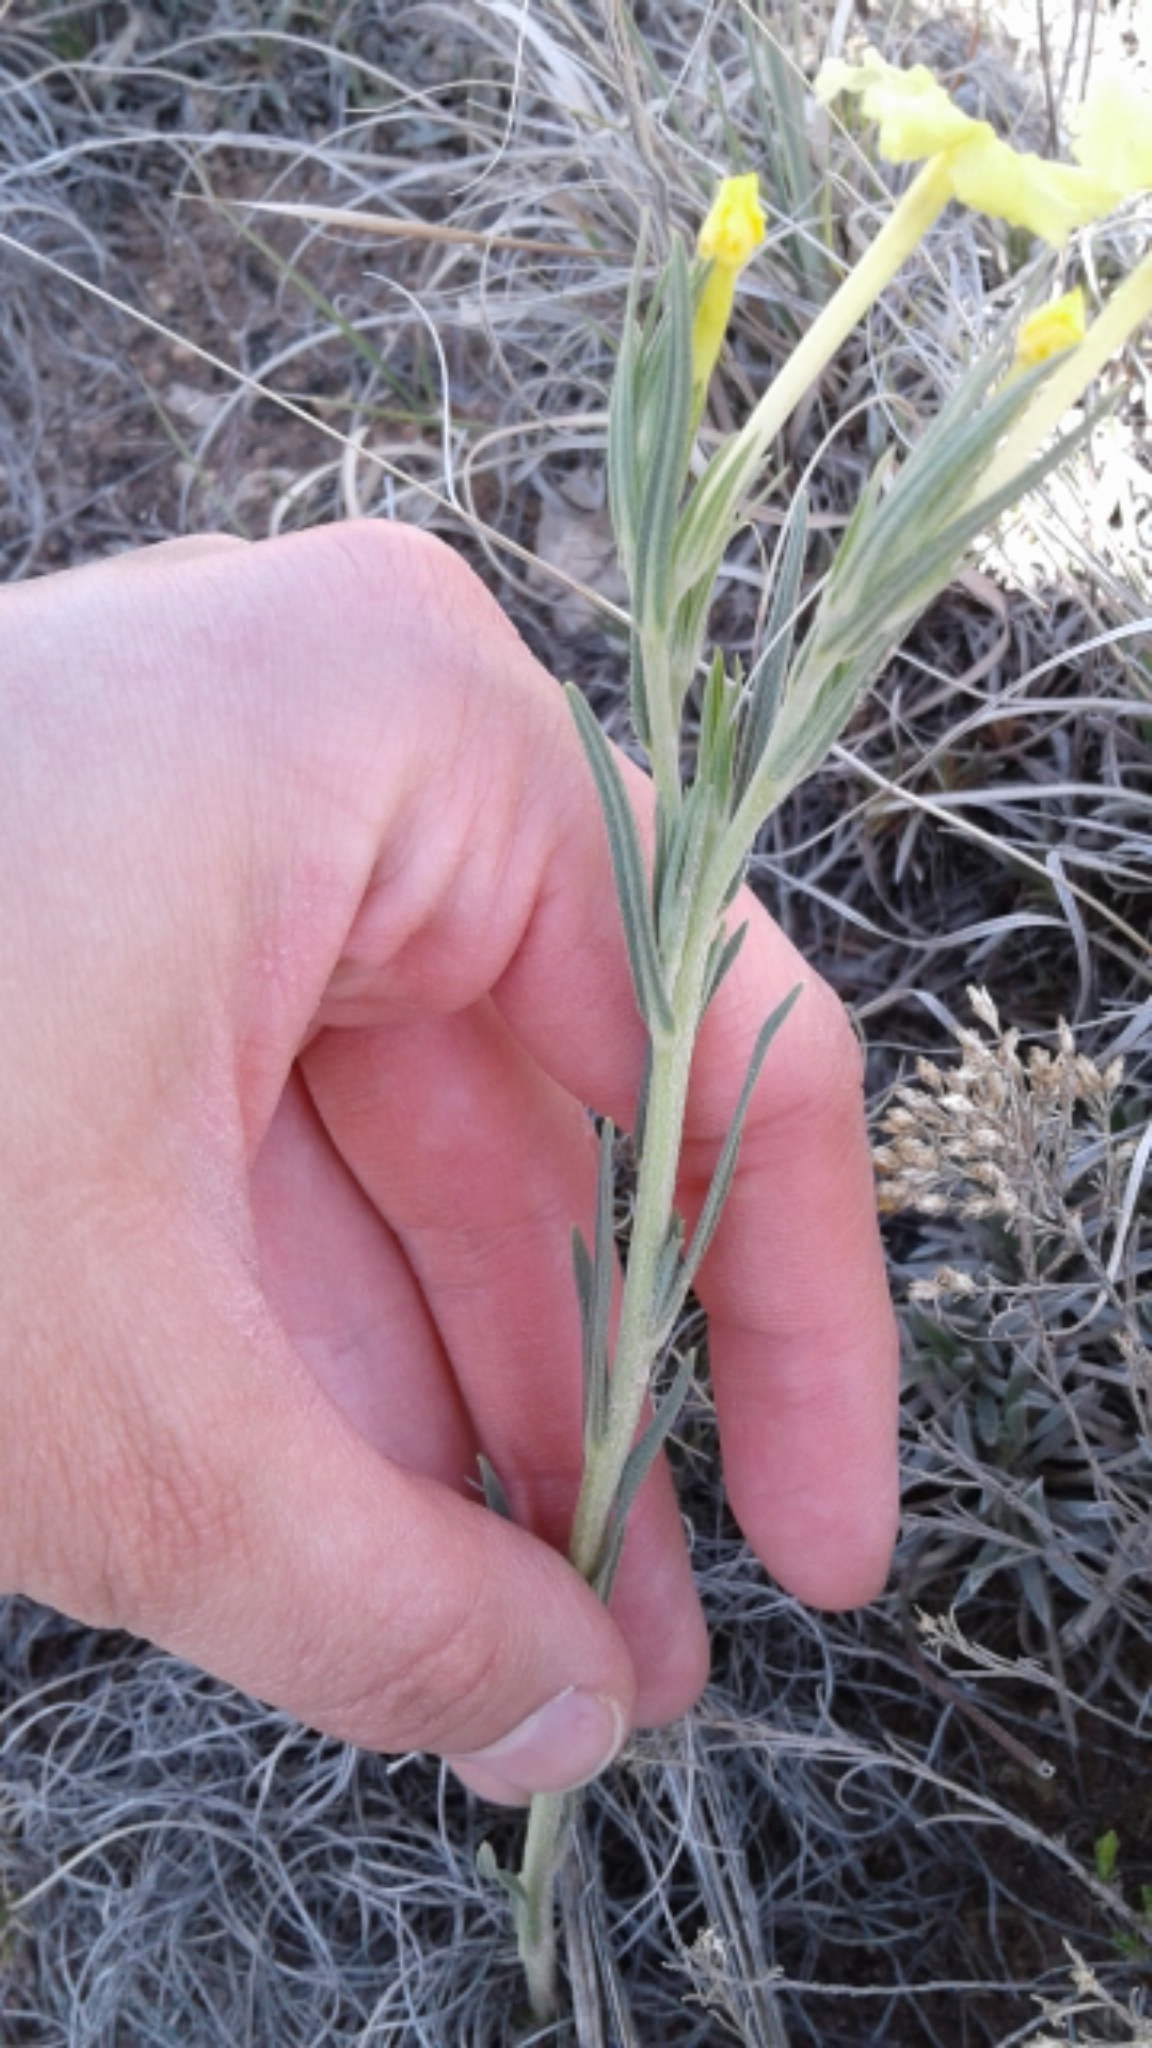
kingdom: Plantae
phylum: Tracheophyta
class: Magnoliopsida
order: Boraginales
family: Boraginaceae
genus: Lithospermum
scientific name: Lithospermum incisum
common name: Fringed gromwell
